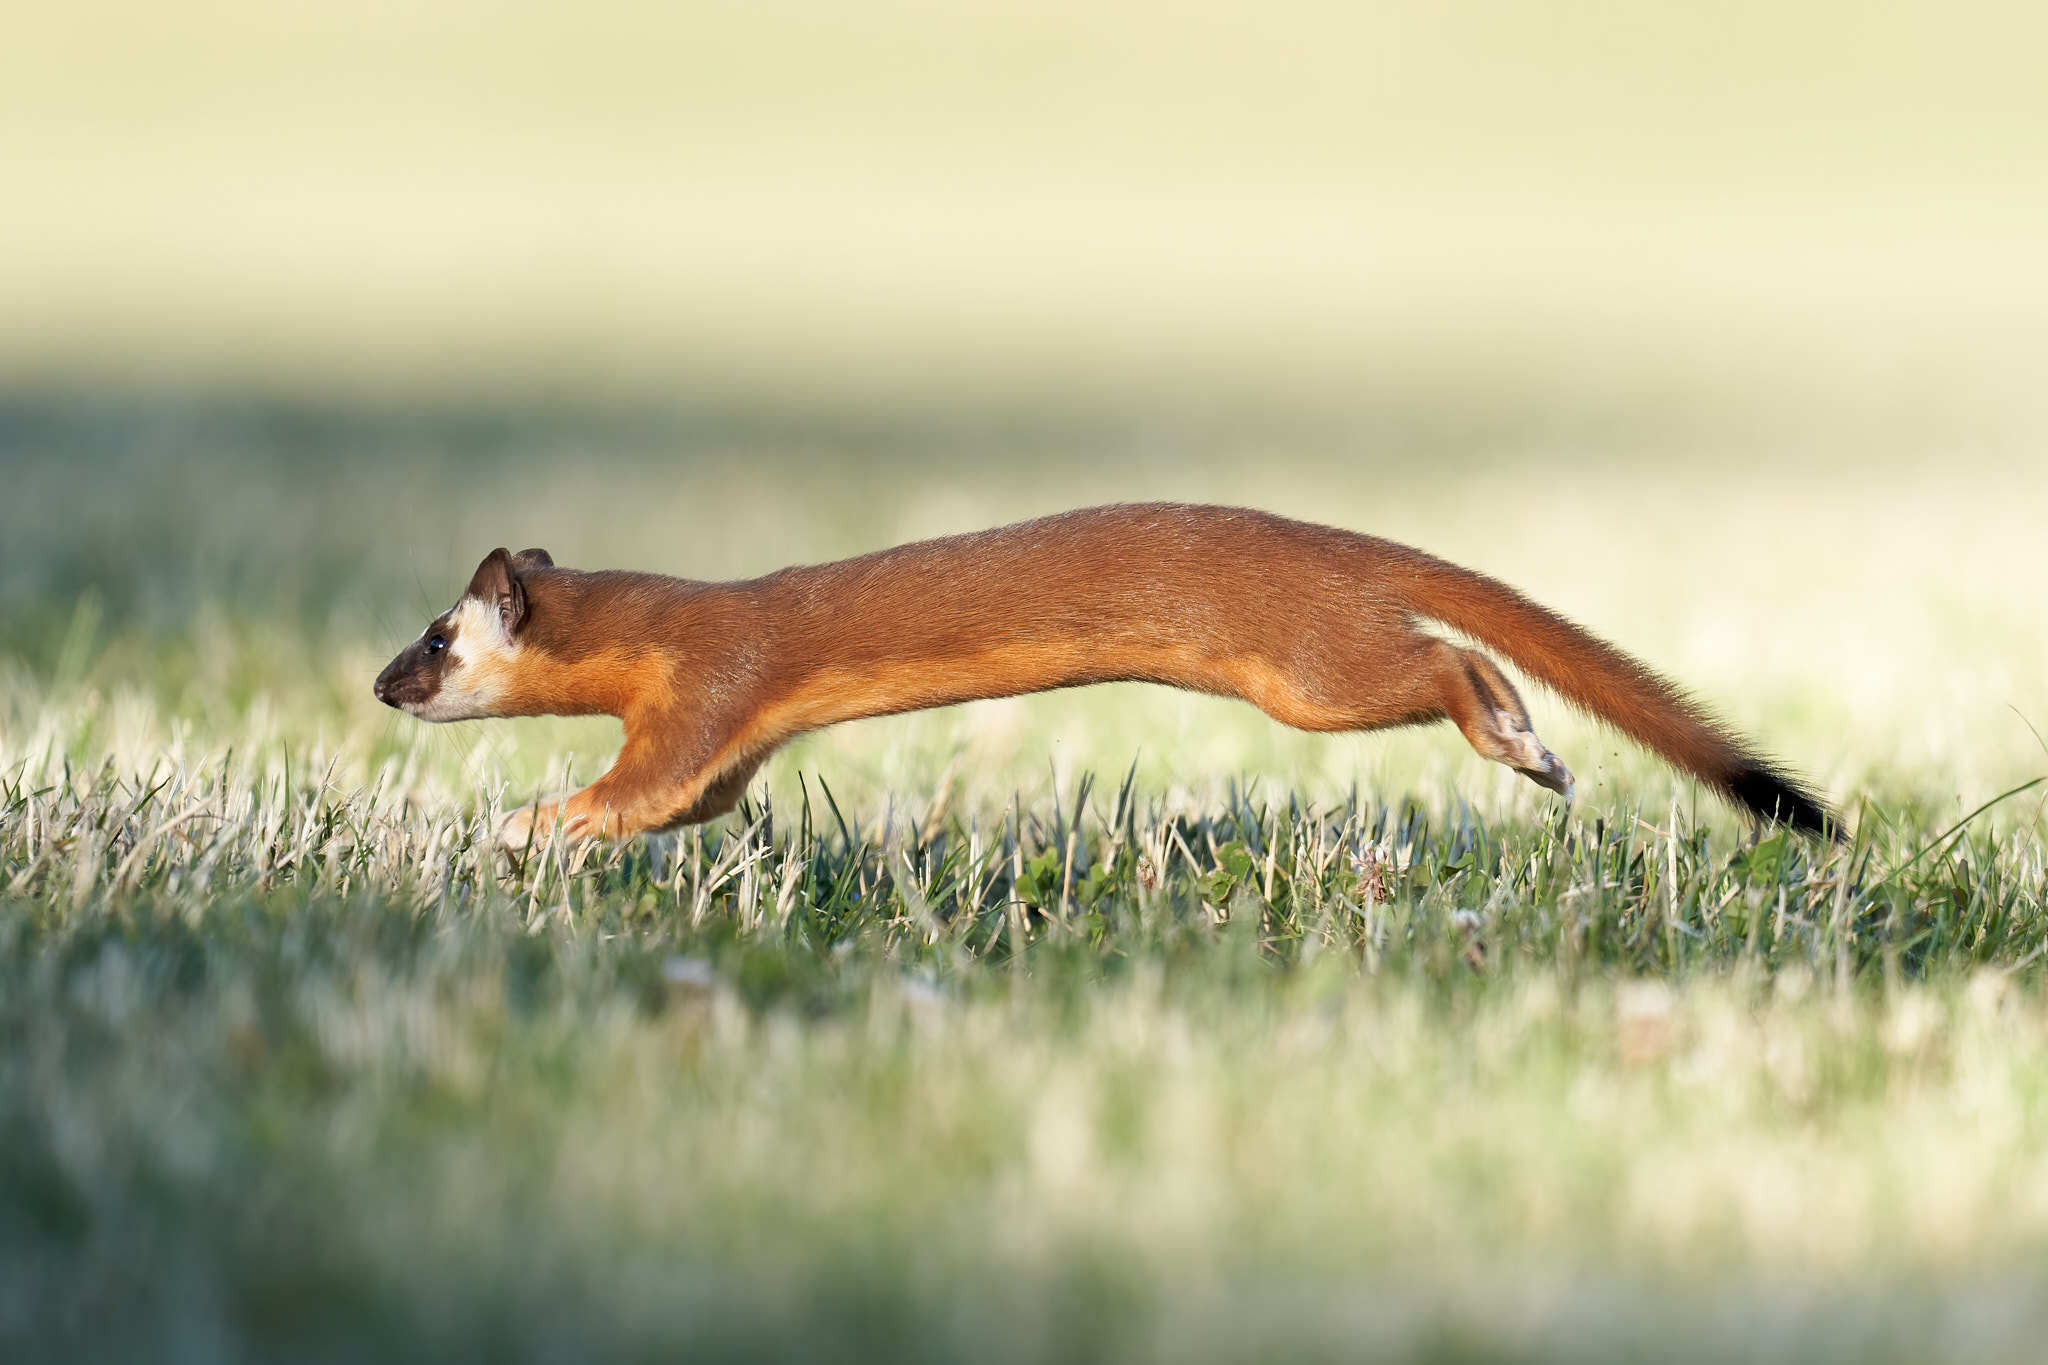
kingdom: Animalia
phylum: Chordata
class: Mammalia
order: Carnivora
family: Mustelidae
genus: Mustela
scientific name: Mustela
